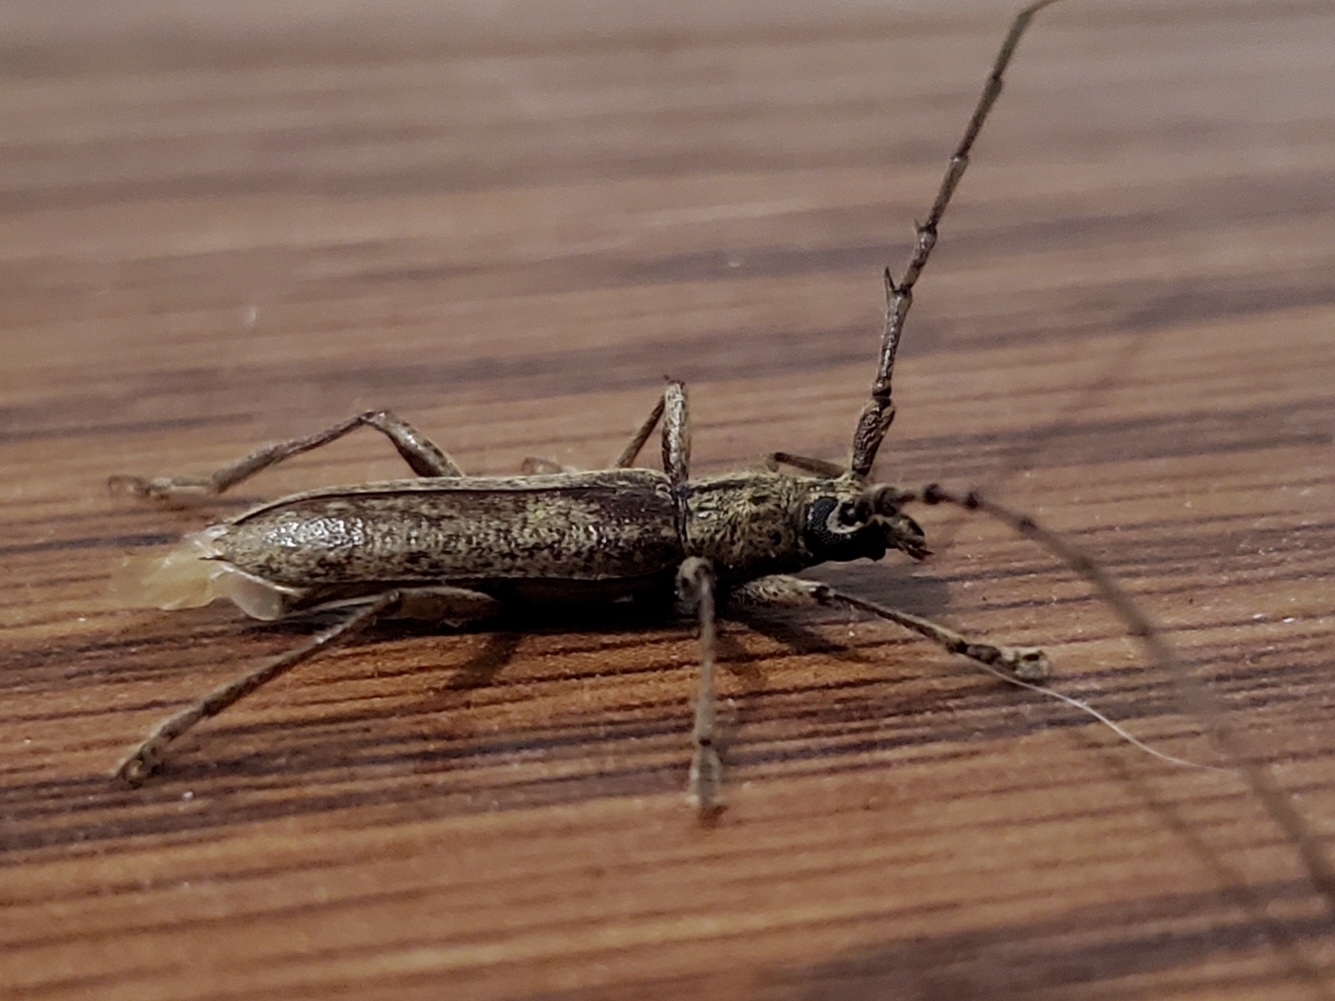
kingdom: Animalia
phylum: Arthropoda
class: Insecta
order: Coleoptera
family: Cerambycidae
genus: Elaphidion
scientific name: Elaphidion mucronatum
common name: Spined oak borer
